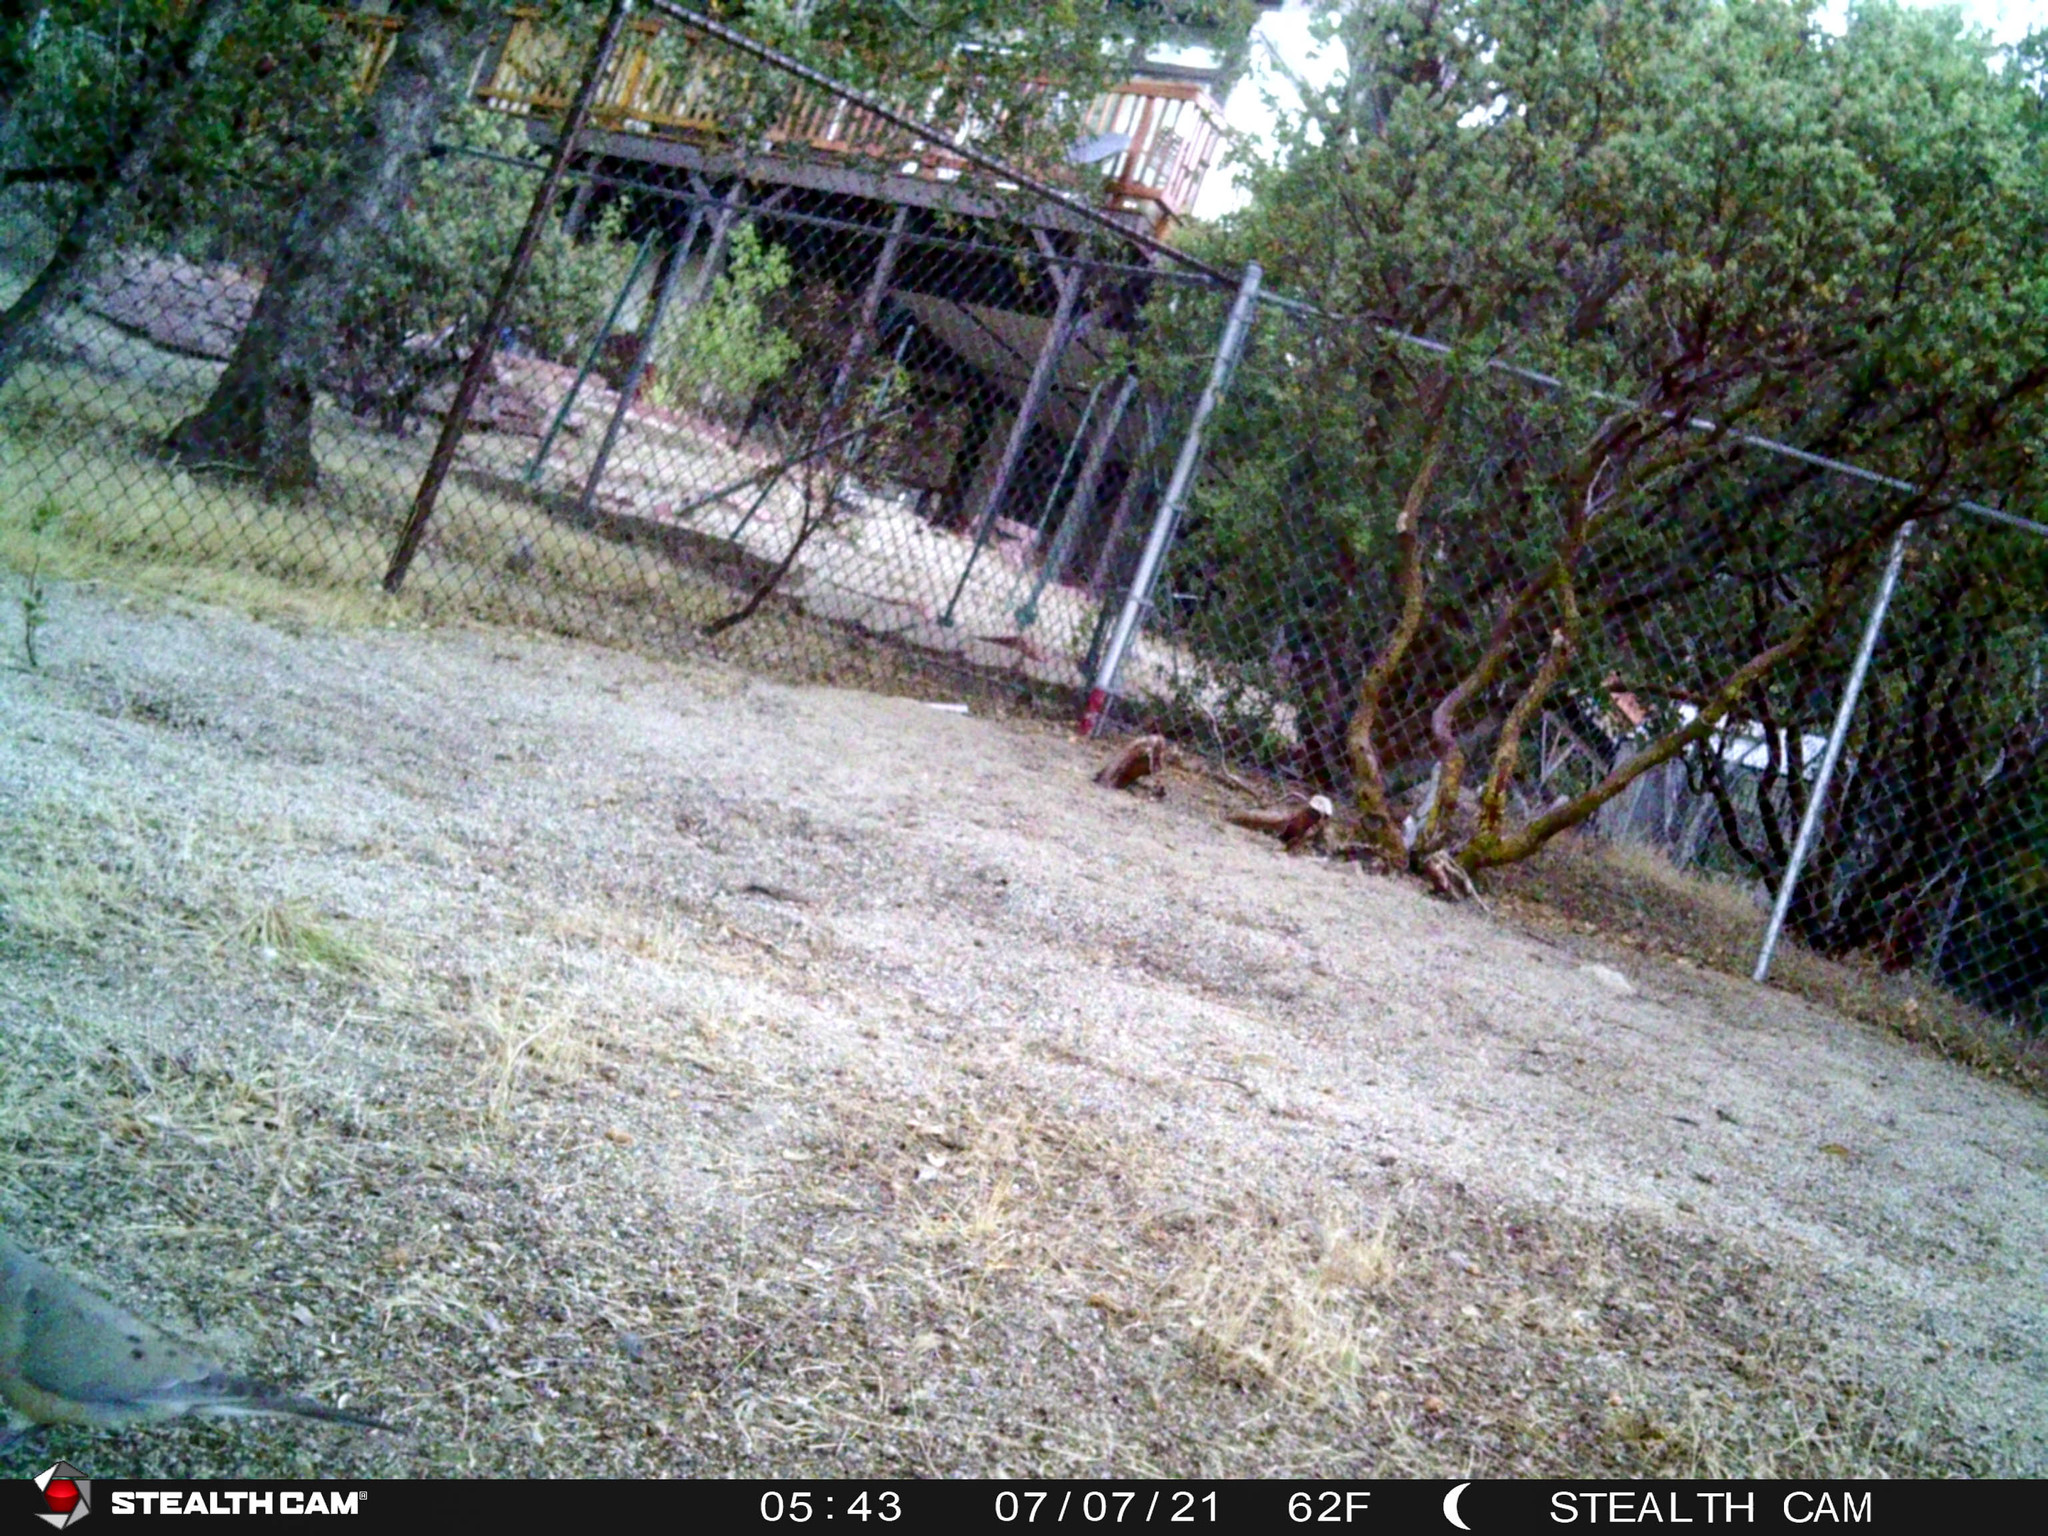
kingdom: Animalia
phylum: Chordata
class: Aves
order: Columbiformes
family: Columbidae
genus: Zenaida
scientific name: Zenaida macroura
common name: Mourning dove
